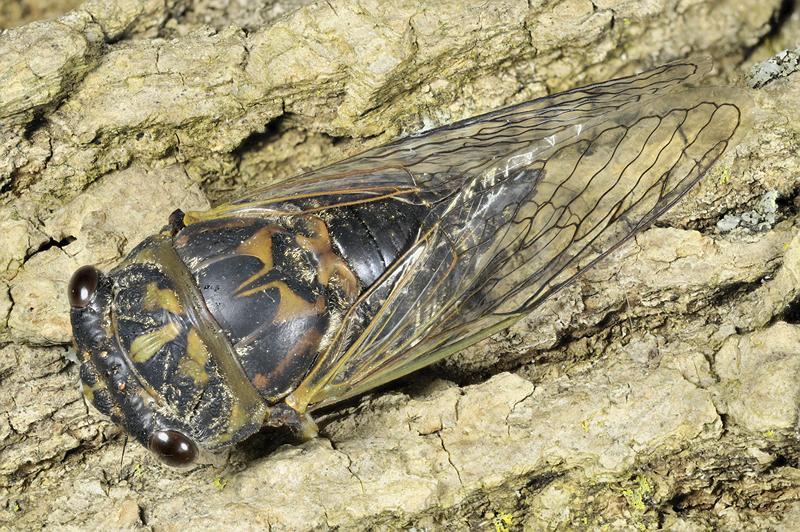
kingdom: Animalia
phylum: Arthropoda
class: Insecta
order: Hemiptera
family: Cicadidae
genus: Neotibicen
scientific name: Neotibicen canicularis
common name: God-day cicada
